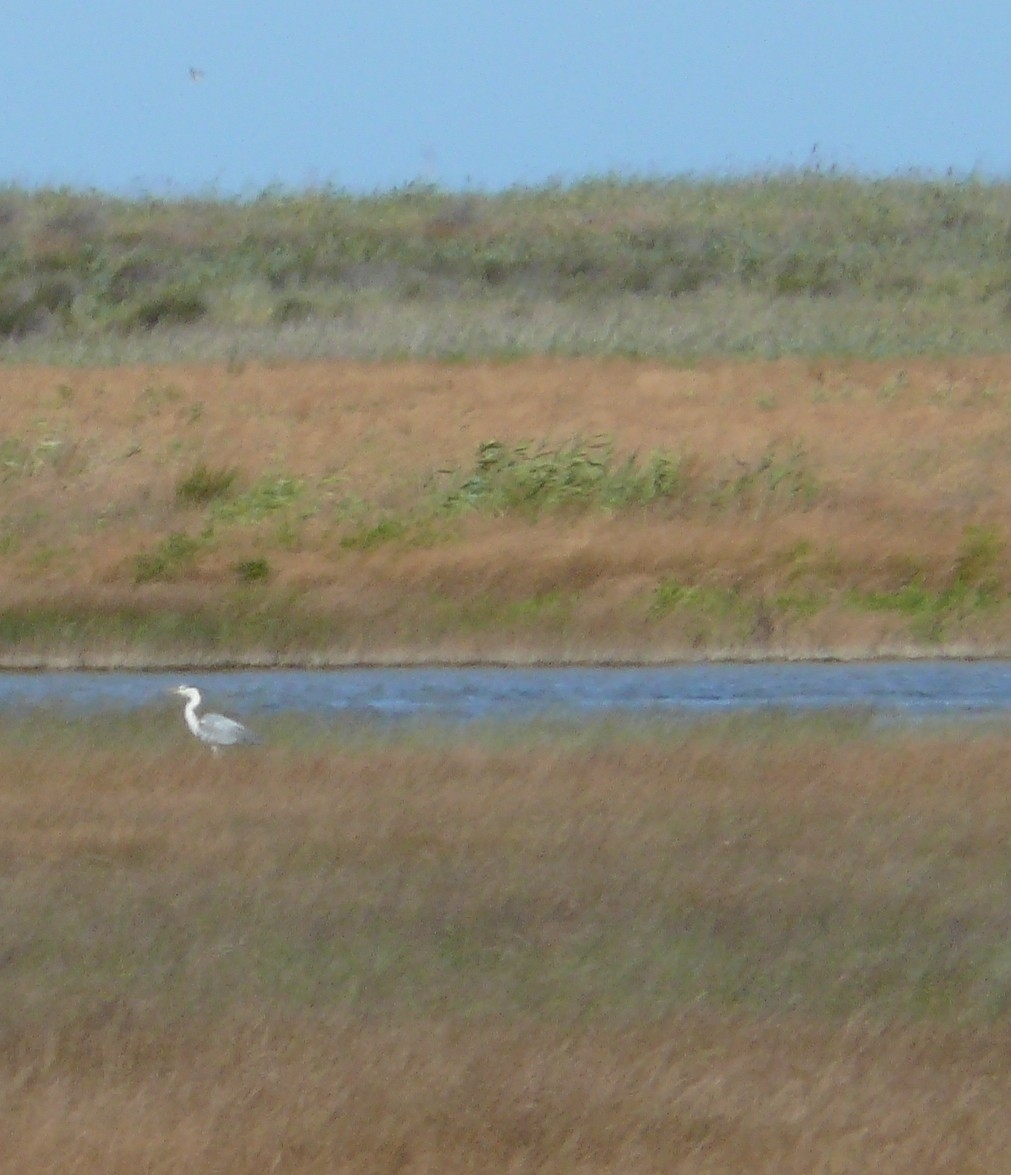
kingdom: Animalia
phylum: Chordata
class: Aves
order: Pelecaniformes
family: Ardeidae
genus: Ardea
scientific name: Ardea cinerea
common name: Grey heron
